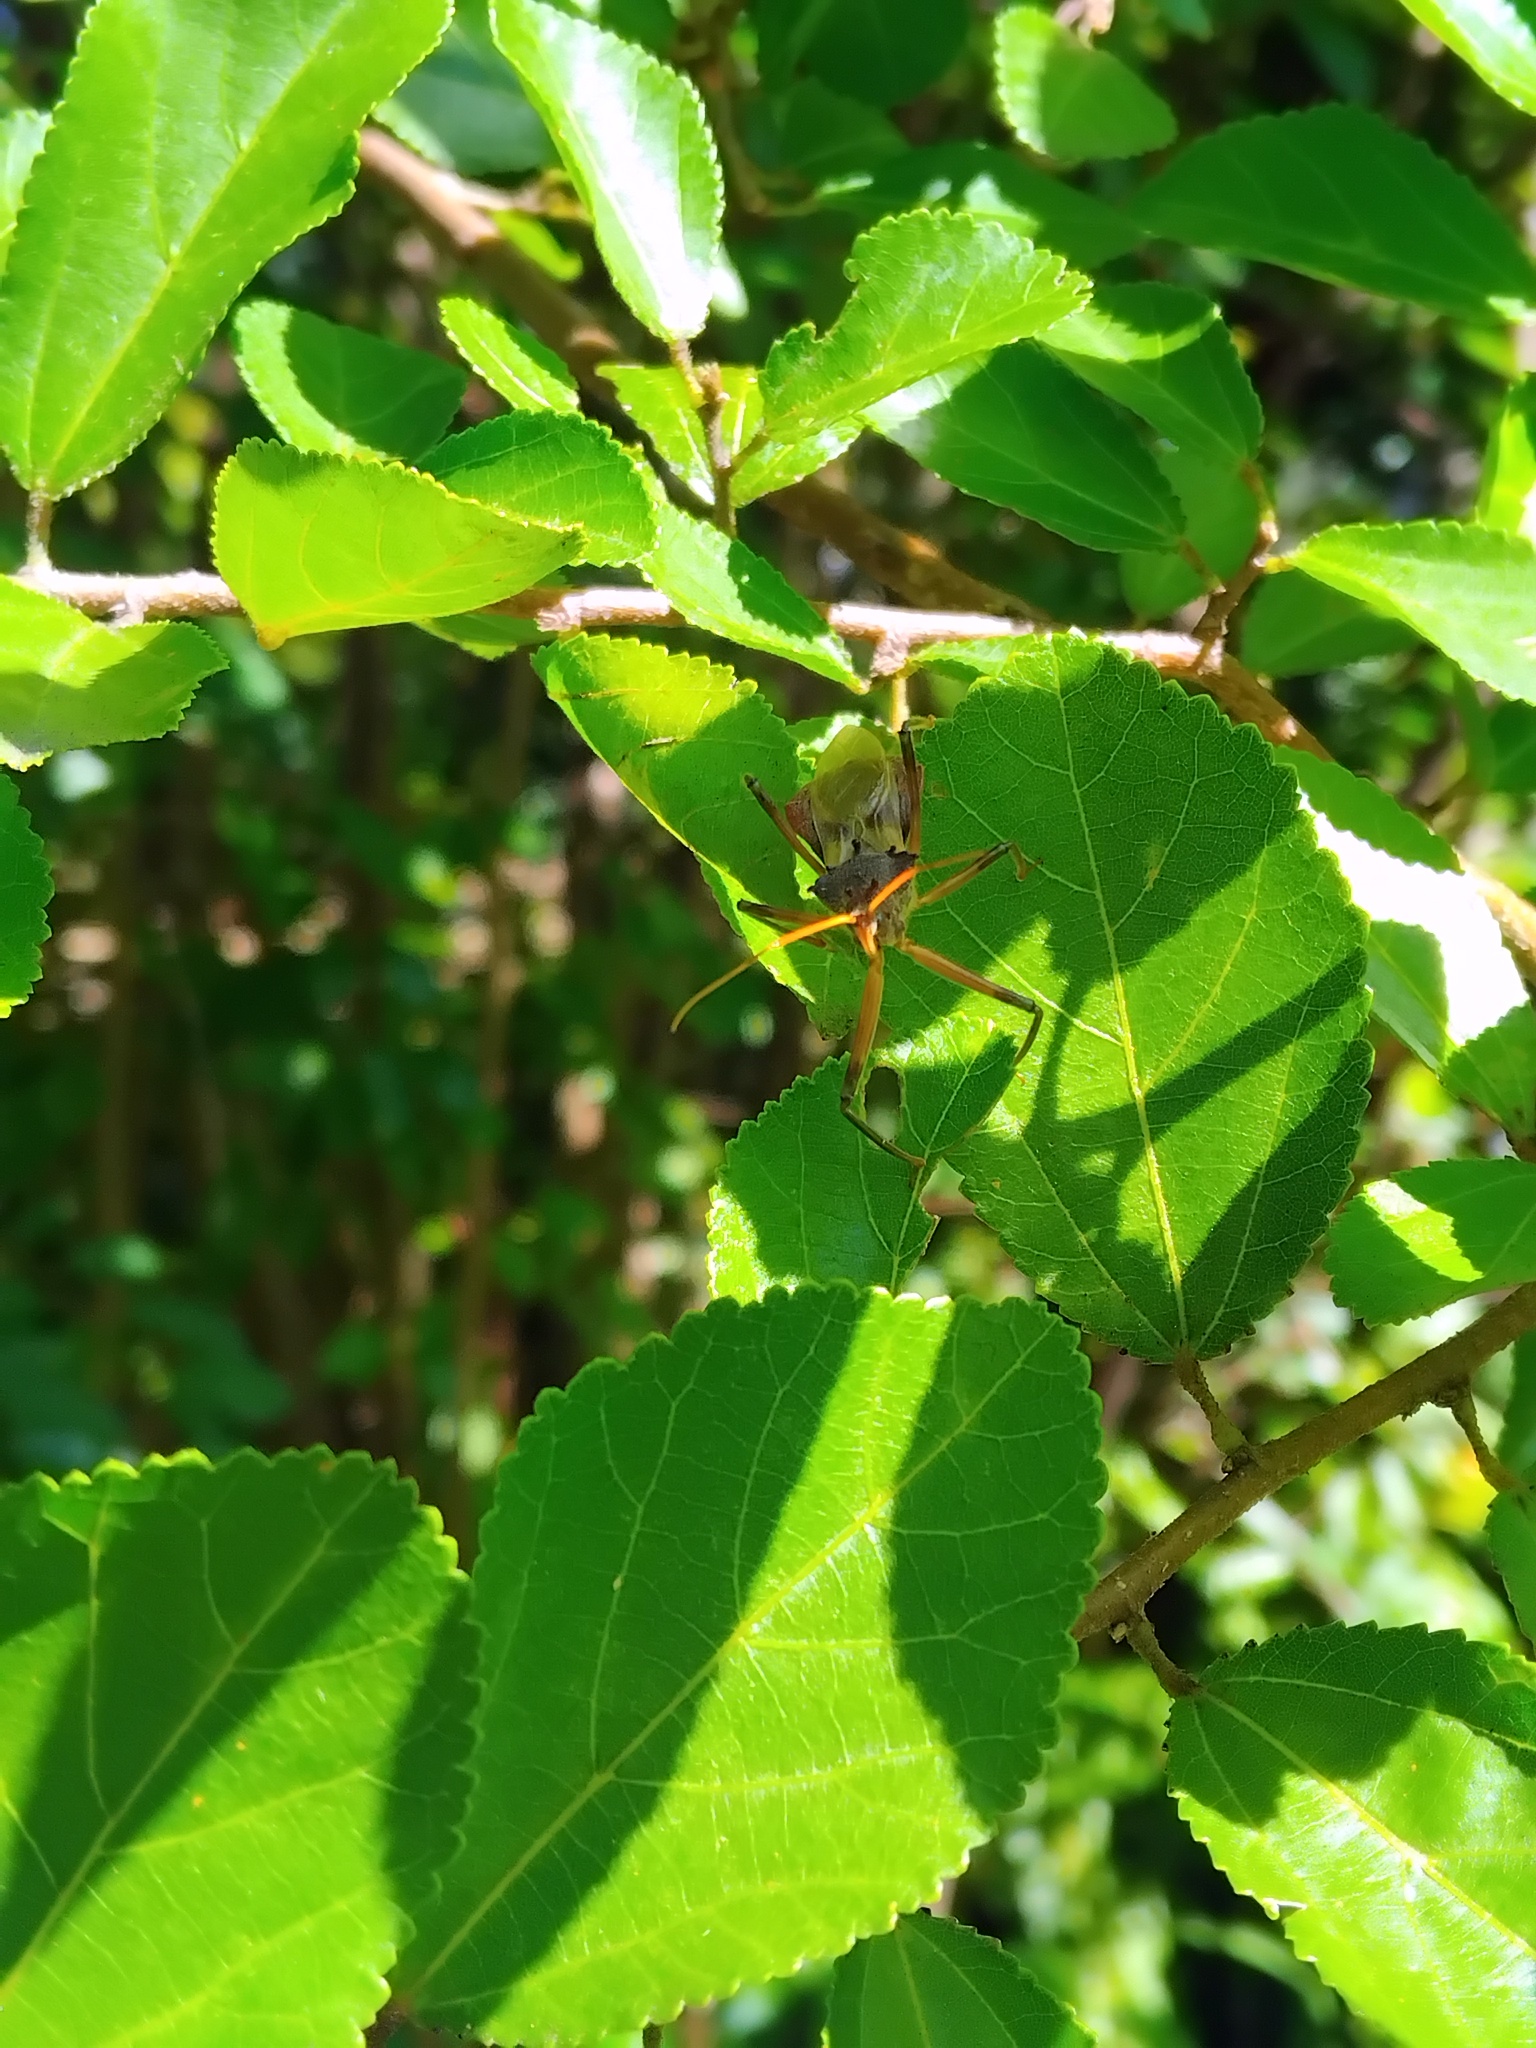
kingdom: Animalia
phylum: Arthropoda
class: Insecta
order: Hemiptera
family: Reduviidae
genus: Pristhesancus
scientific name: Pristhesancus plagipennis
